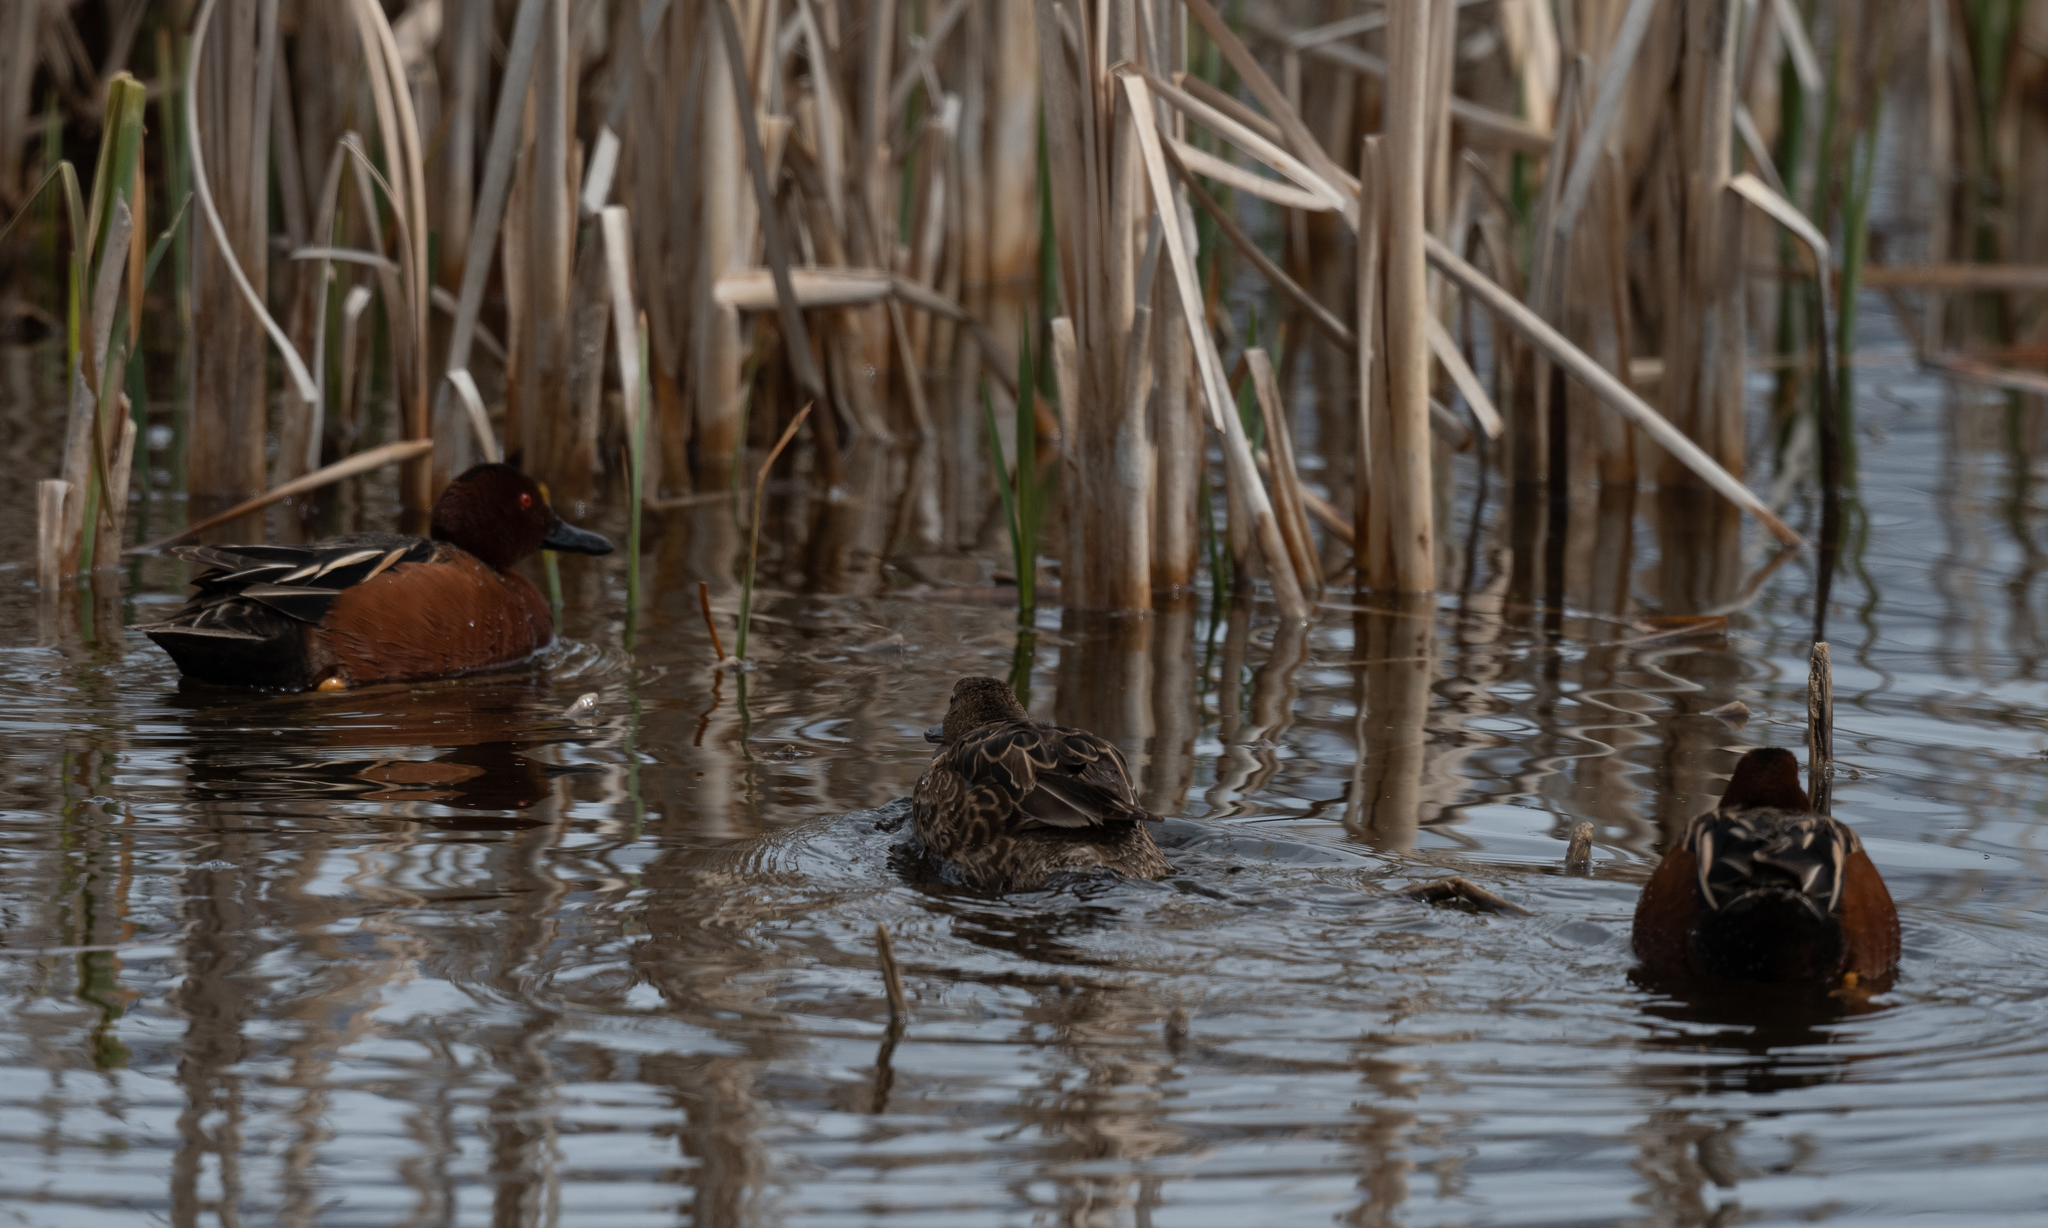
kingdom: Animalia
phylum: Chordata
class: Aves
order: Anseriformes
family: Anatidae
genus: Spatula
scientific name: Spatula cyanoptera
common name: Cinnamon teal
